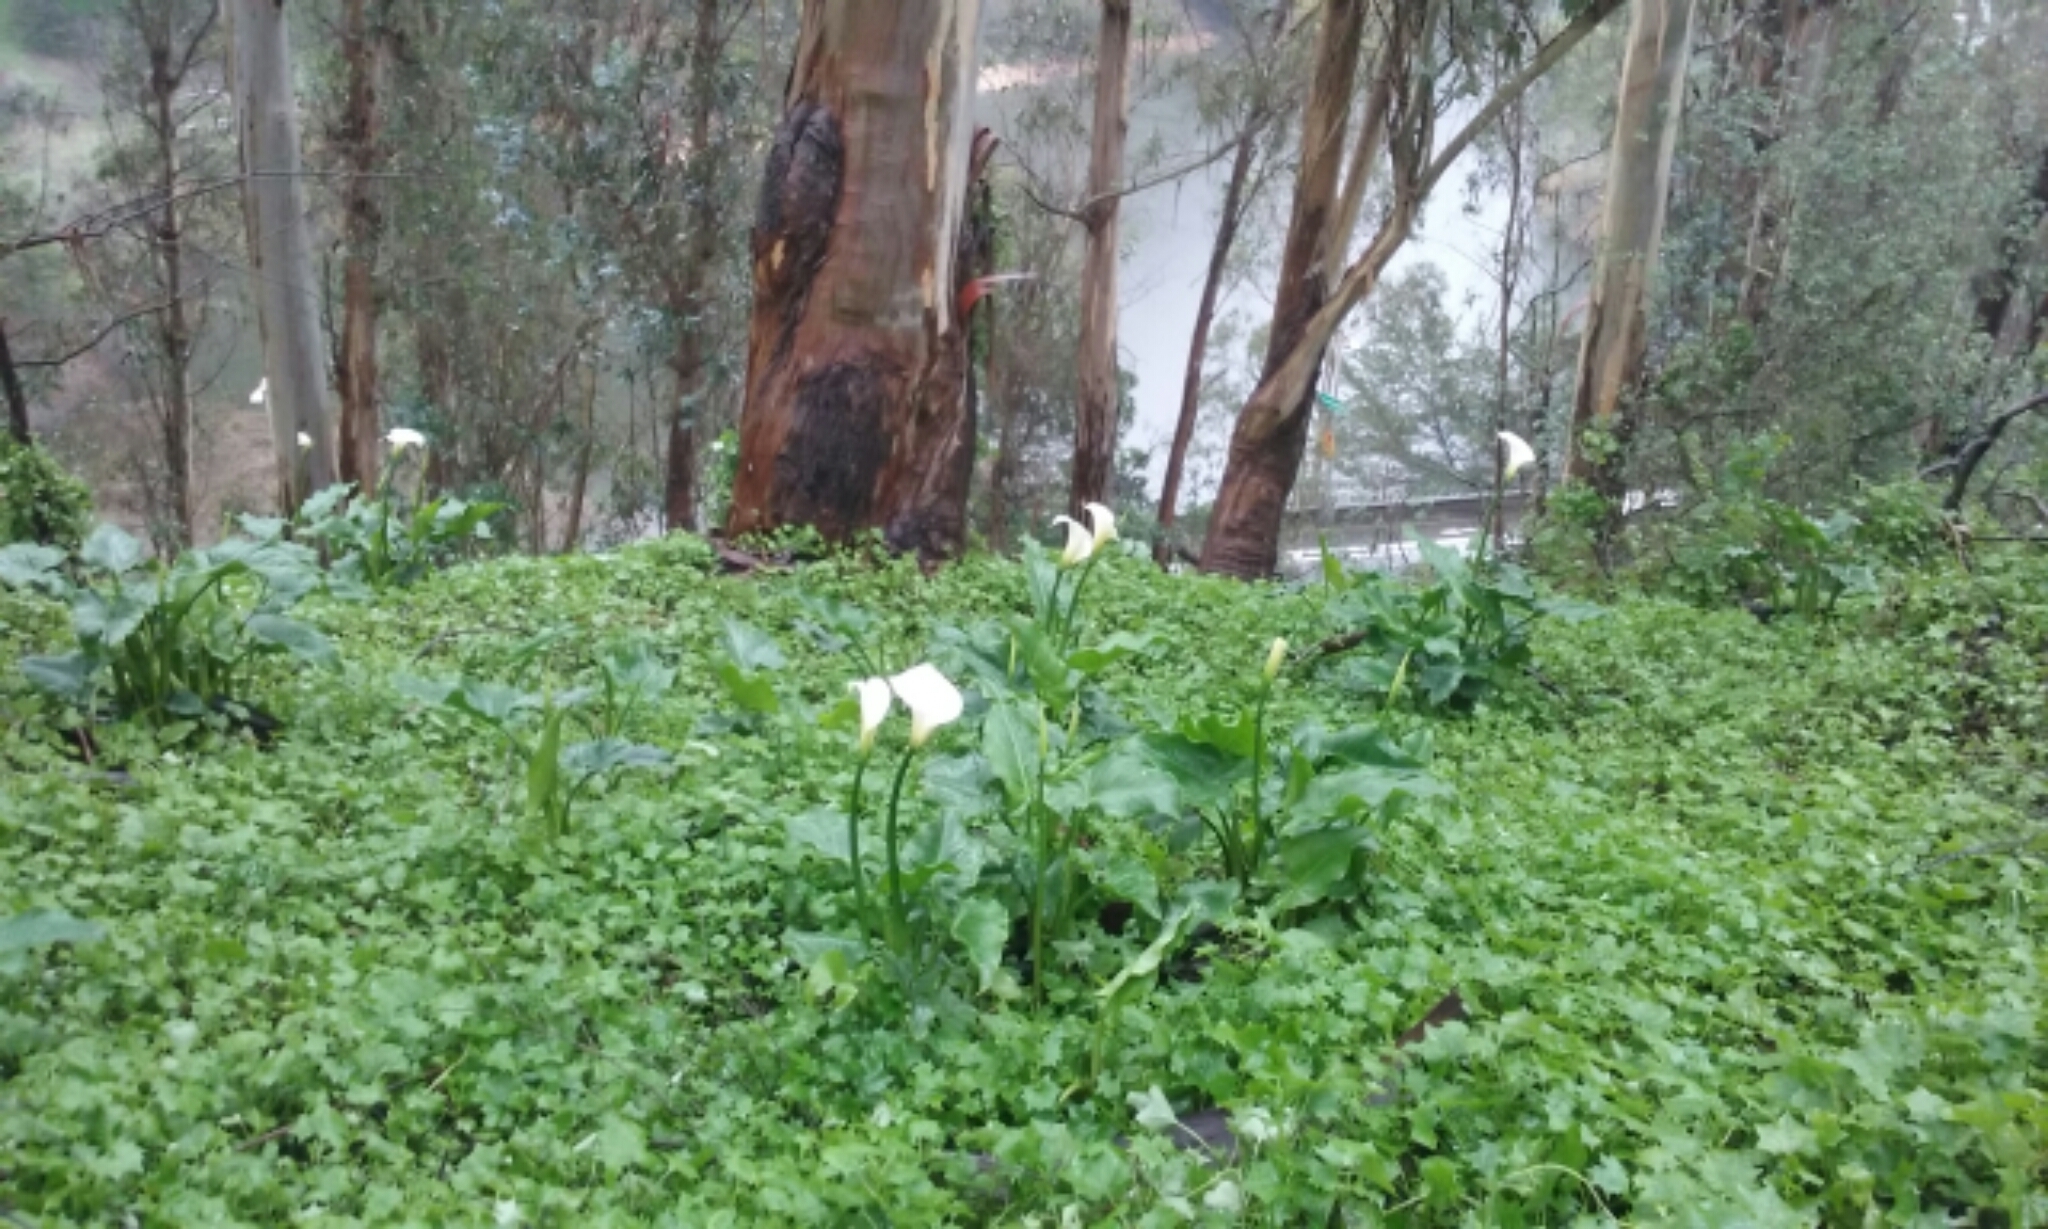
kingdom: Plantae
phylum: Tracheophyta
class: Liliopsida
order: Alismatales
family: Araceae
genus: Zantedeschia
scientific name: Zantedeschia aethiopica
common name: Altar-lily
